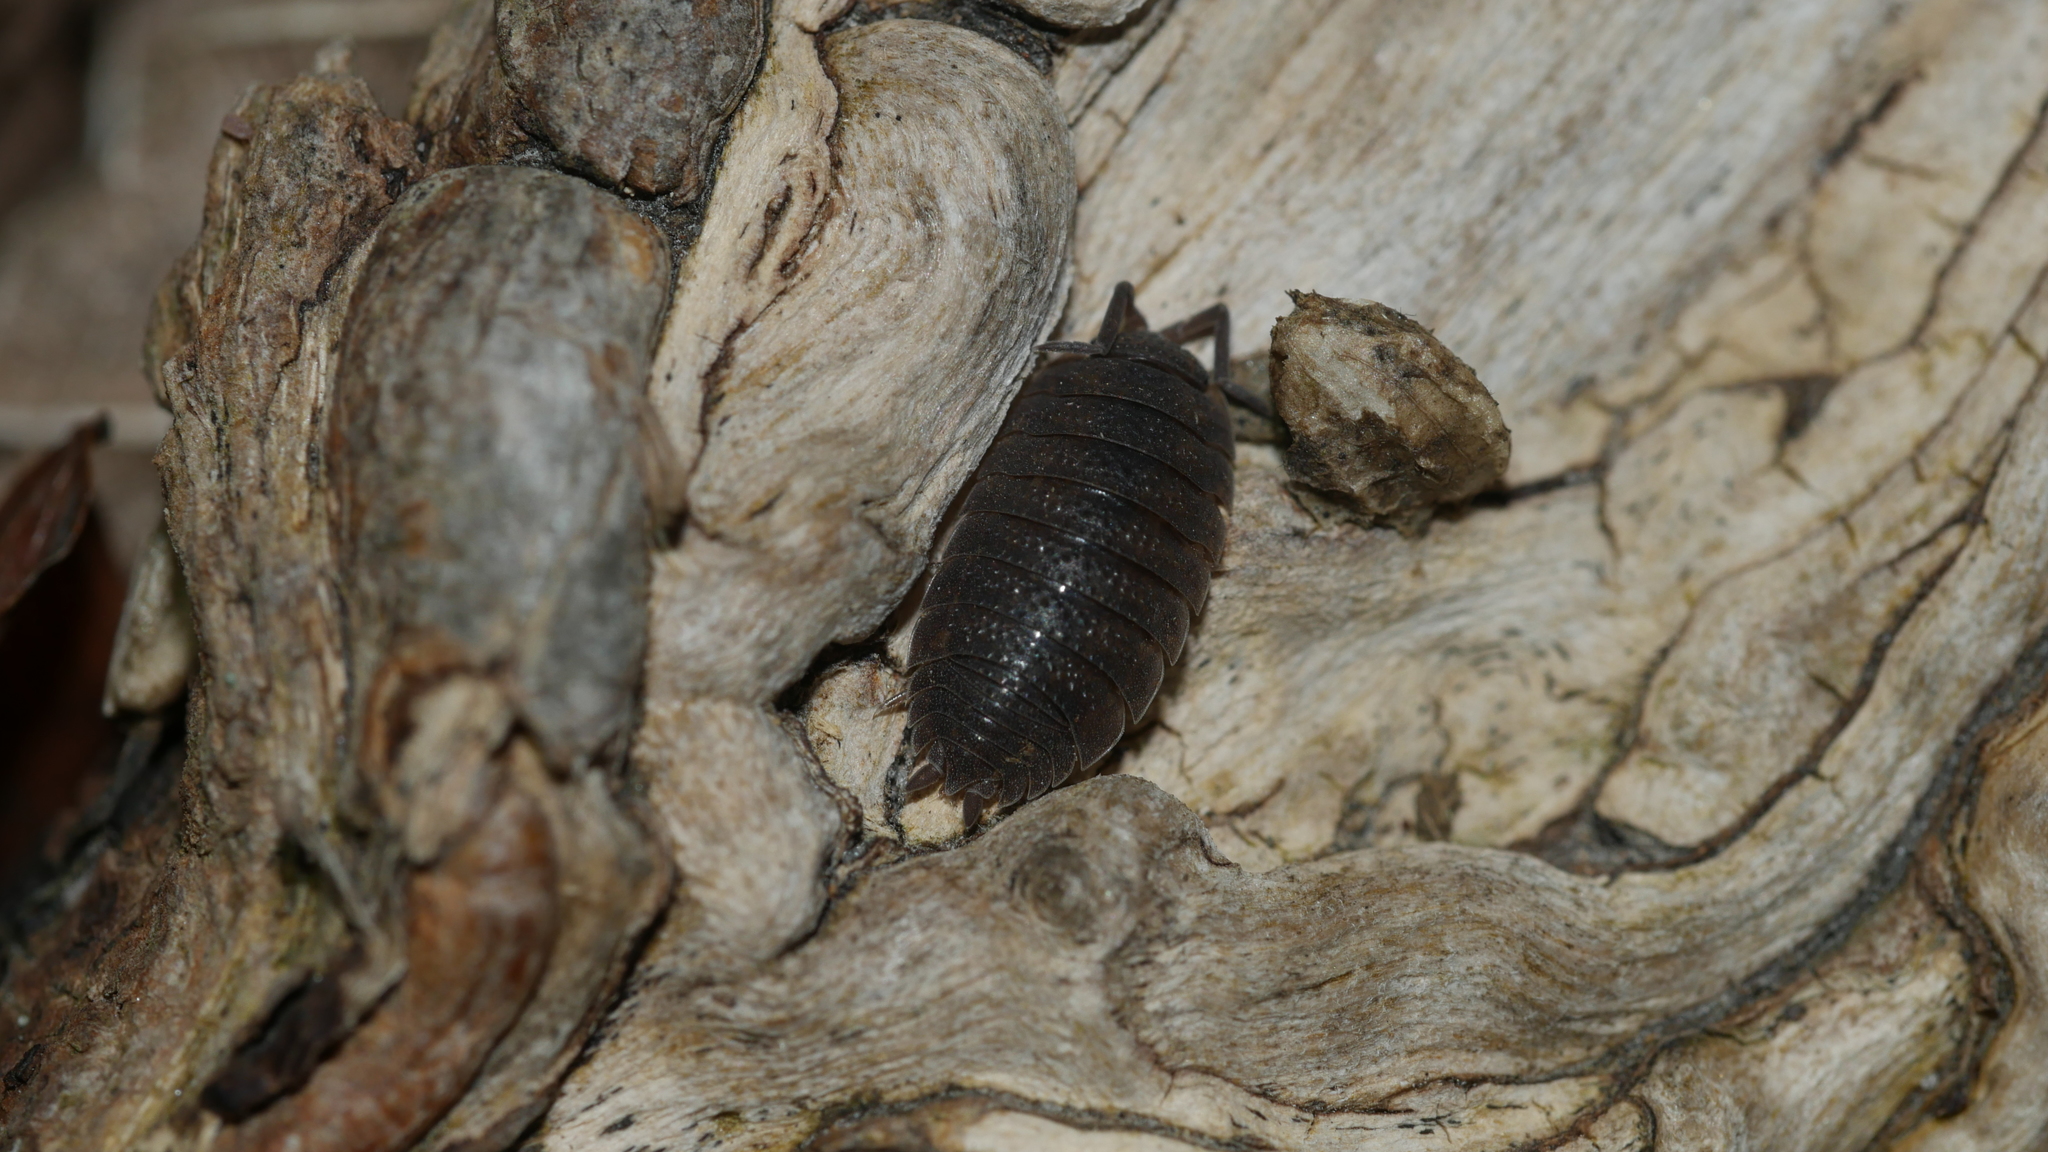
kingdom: Animalia
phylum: Arthropoda
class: Malacostraca
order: Isopoda
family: Porcellionidae
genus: Porcellio
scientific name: Porcellio scaber
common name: Common rough woodlouse
